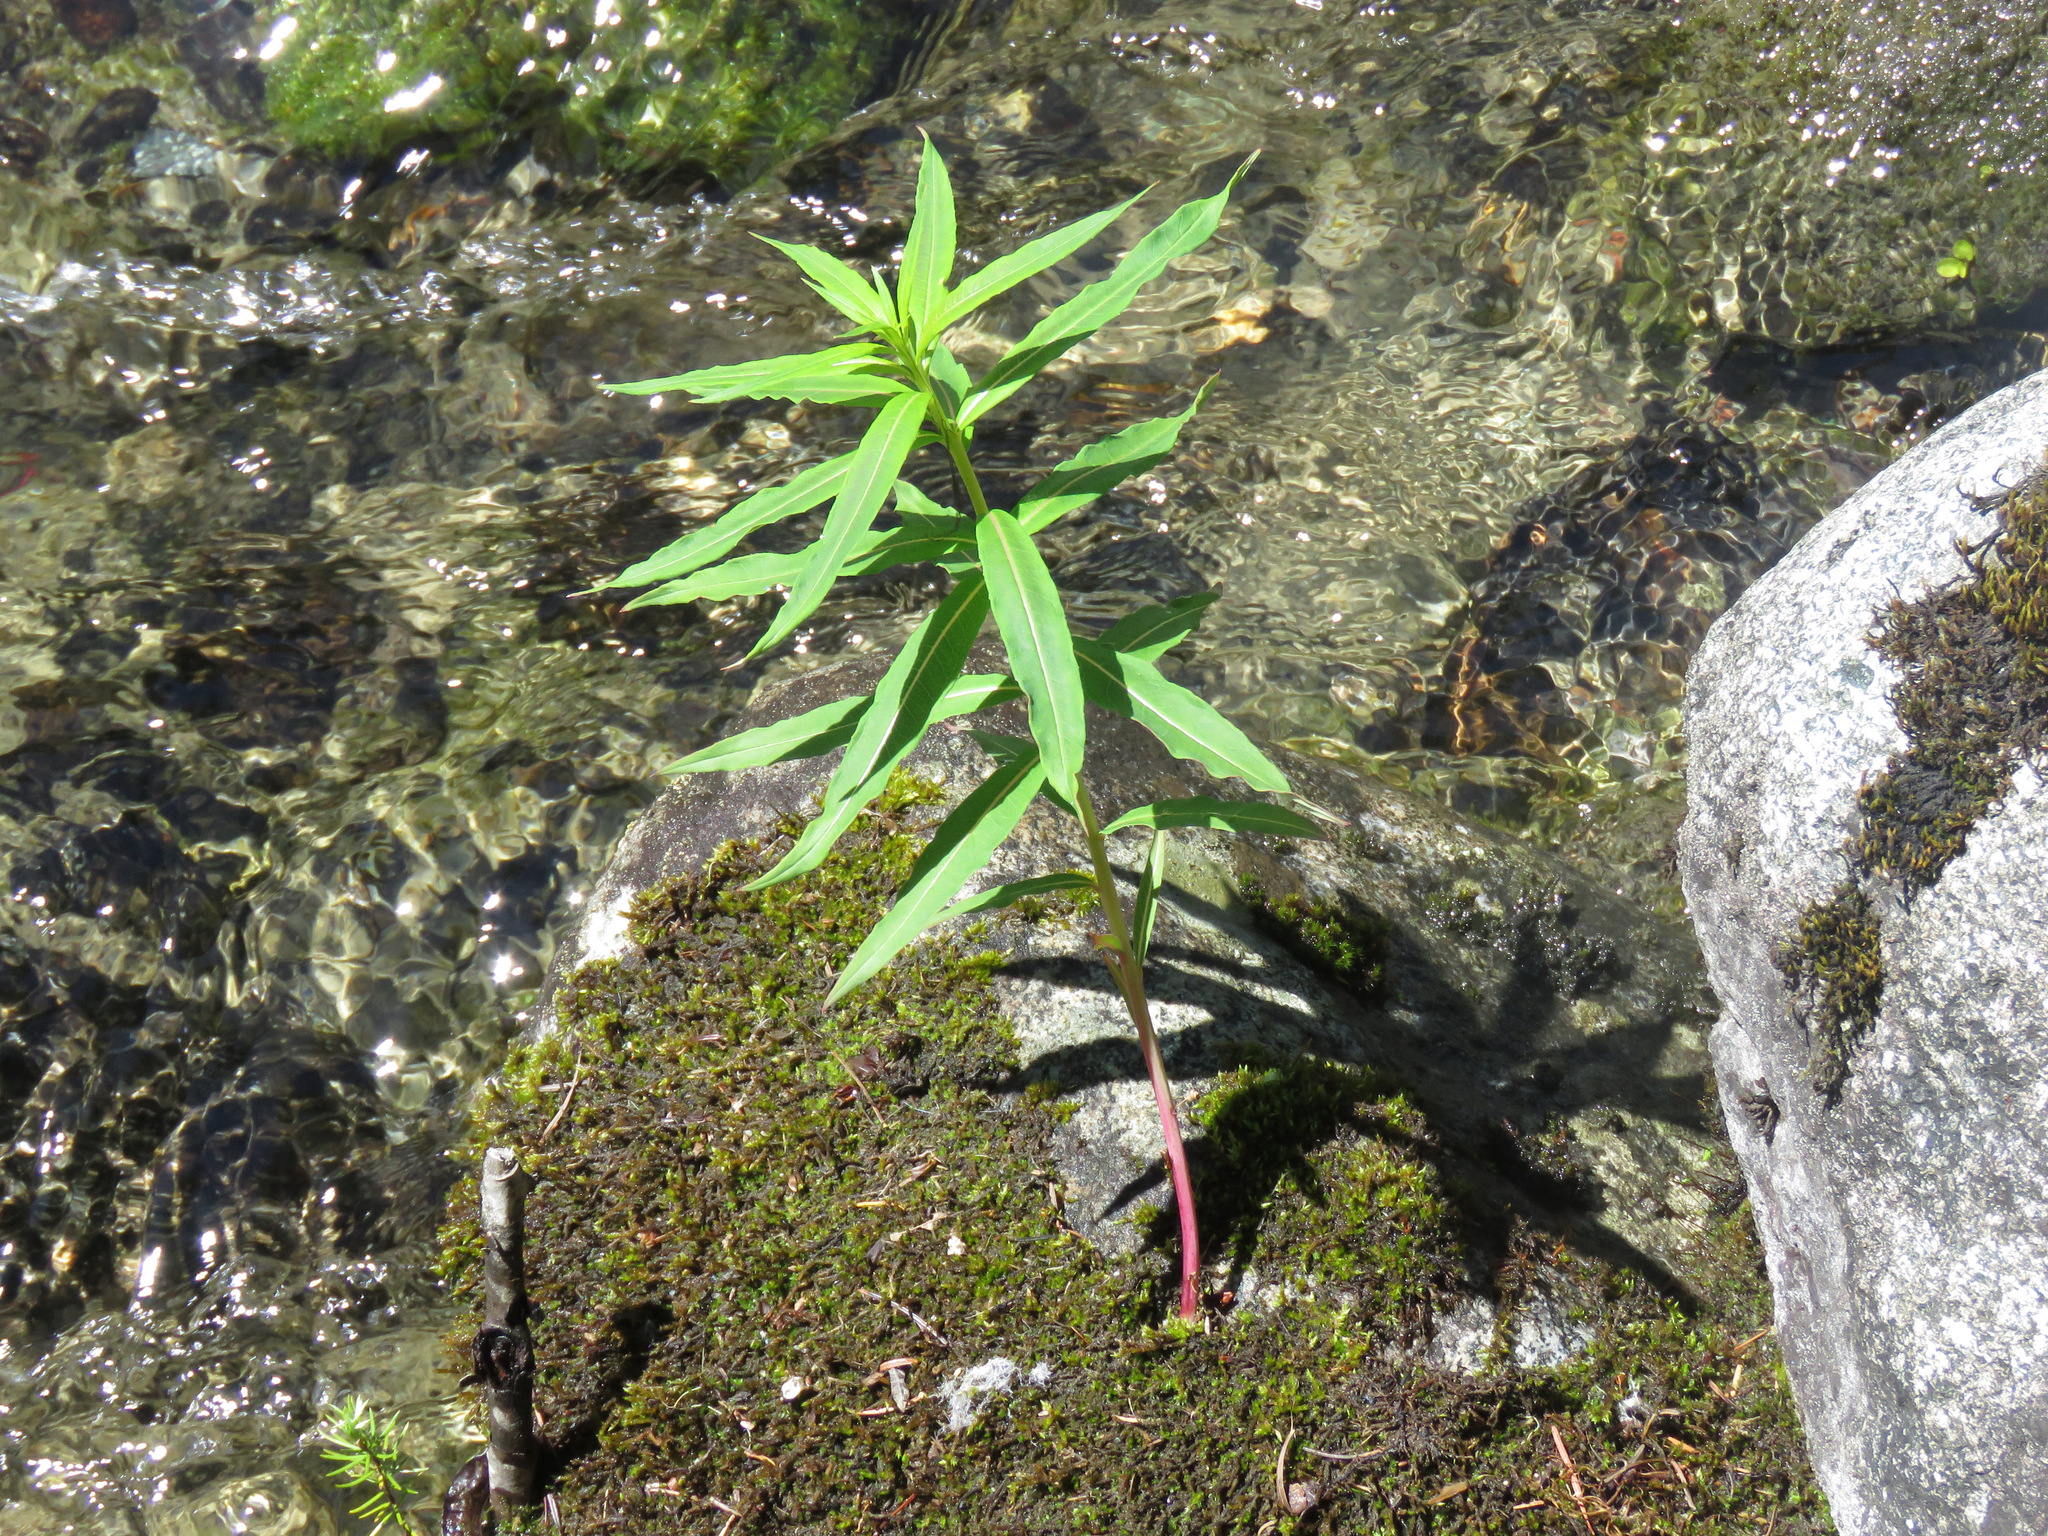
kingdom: Plantae
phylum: Tracheophyta
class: Magnoliopsida
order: Myrtales
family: Onagraceae
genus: Chamaenerion
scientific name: Chamaenerion angustifolium
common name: Fireweed
